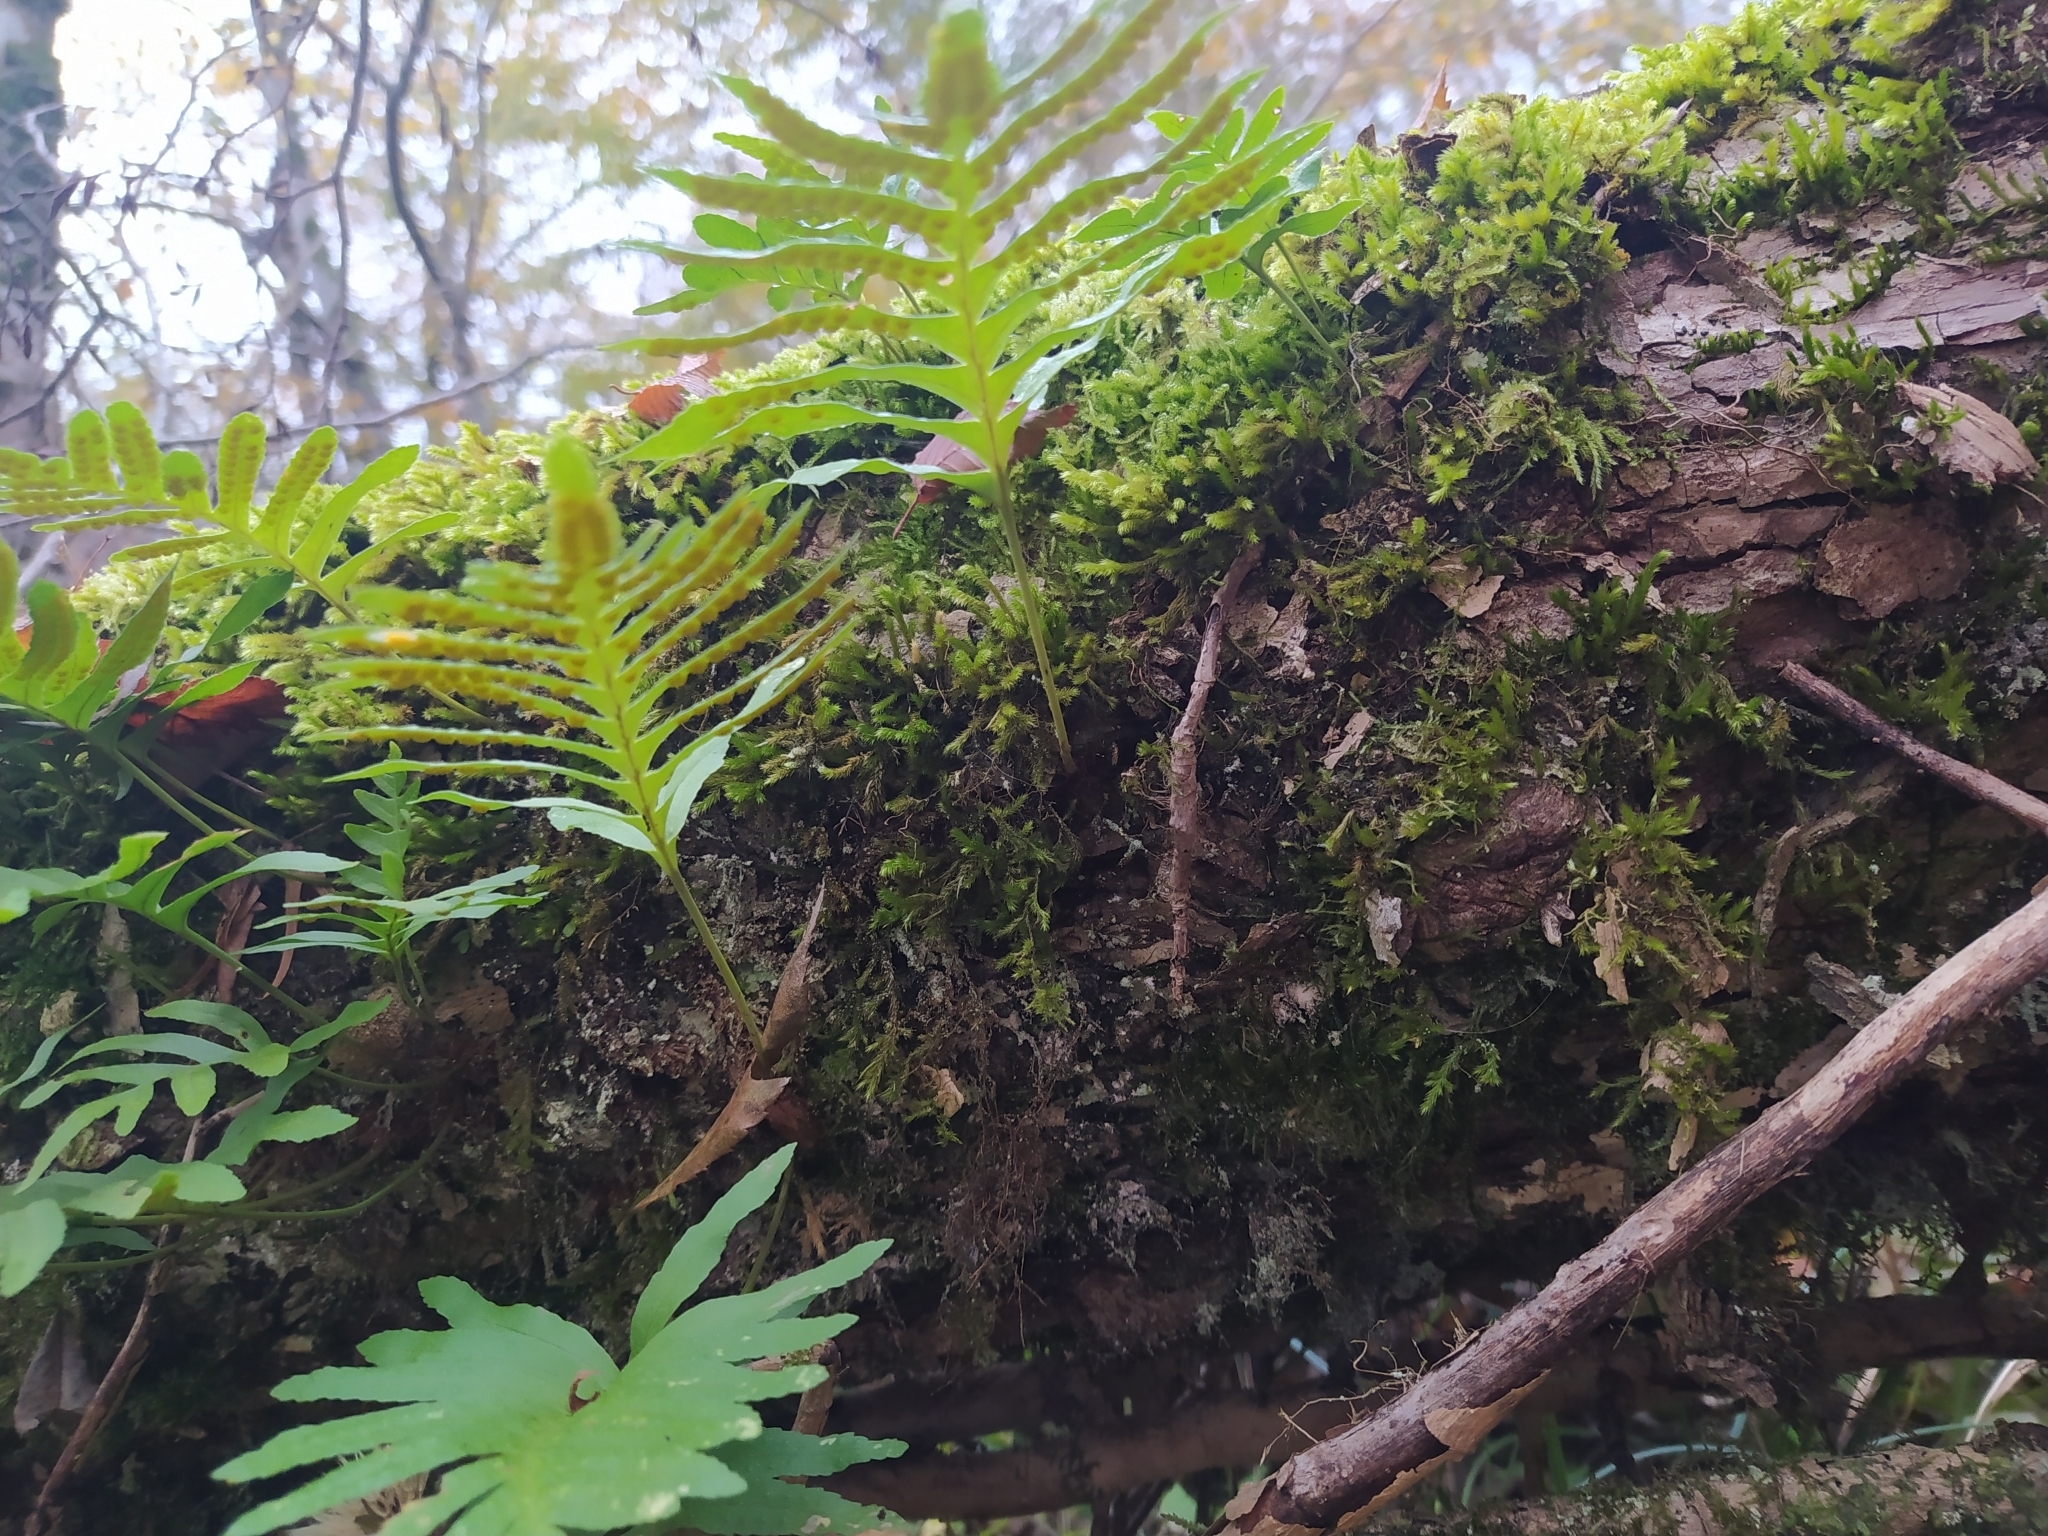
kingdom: Plantae
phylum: Tracheophyta
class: Polypodiopsida
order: Polypodiales
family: Polypodiaceae
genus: Polypodium
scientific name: Polypodium cambricum
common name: Southern polypody
